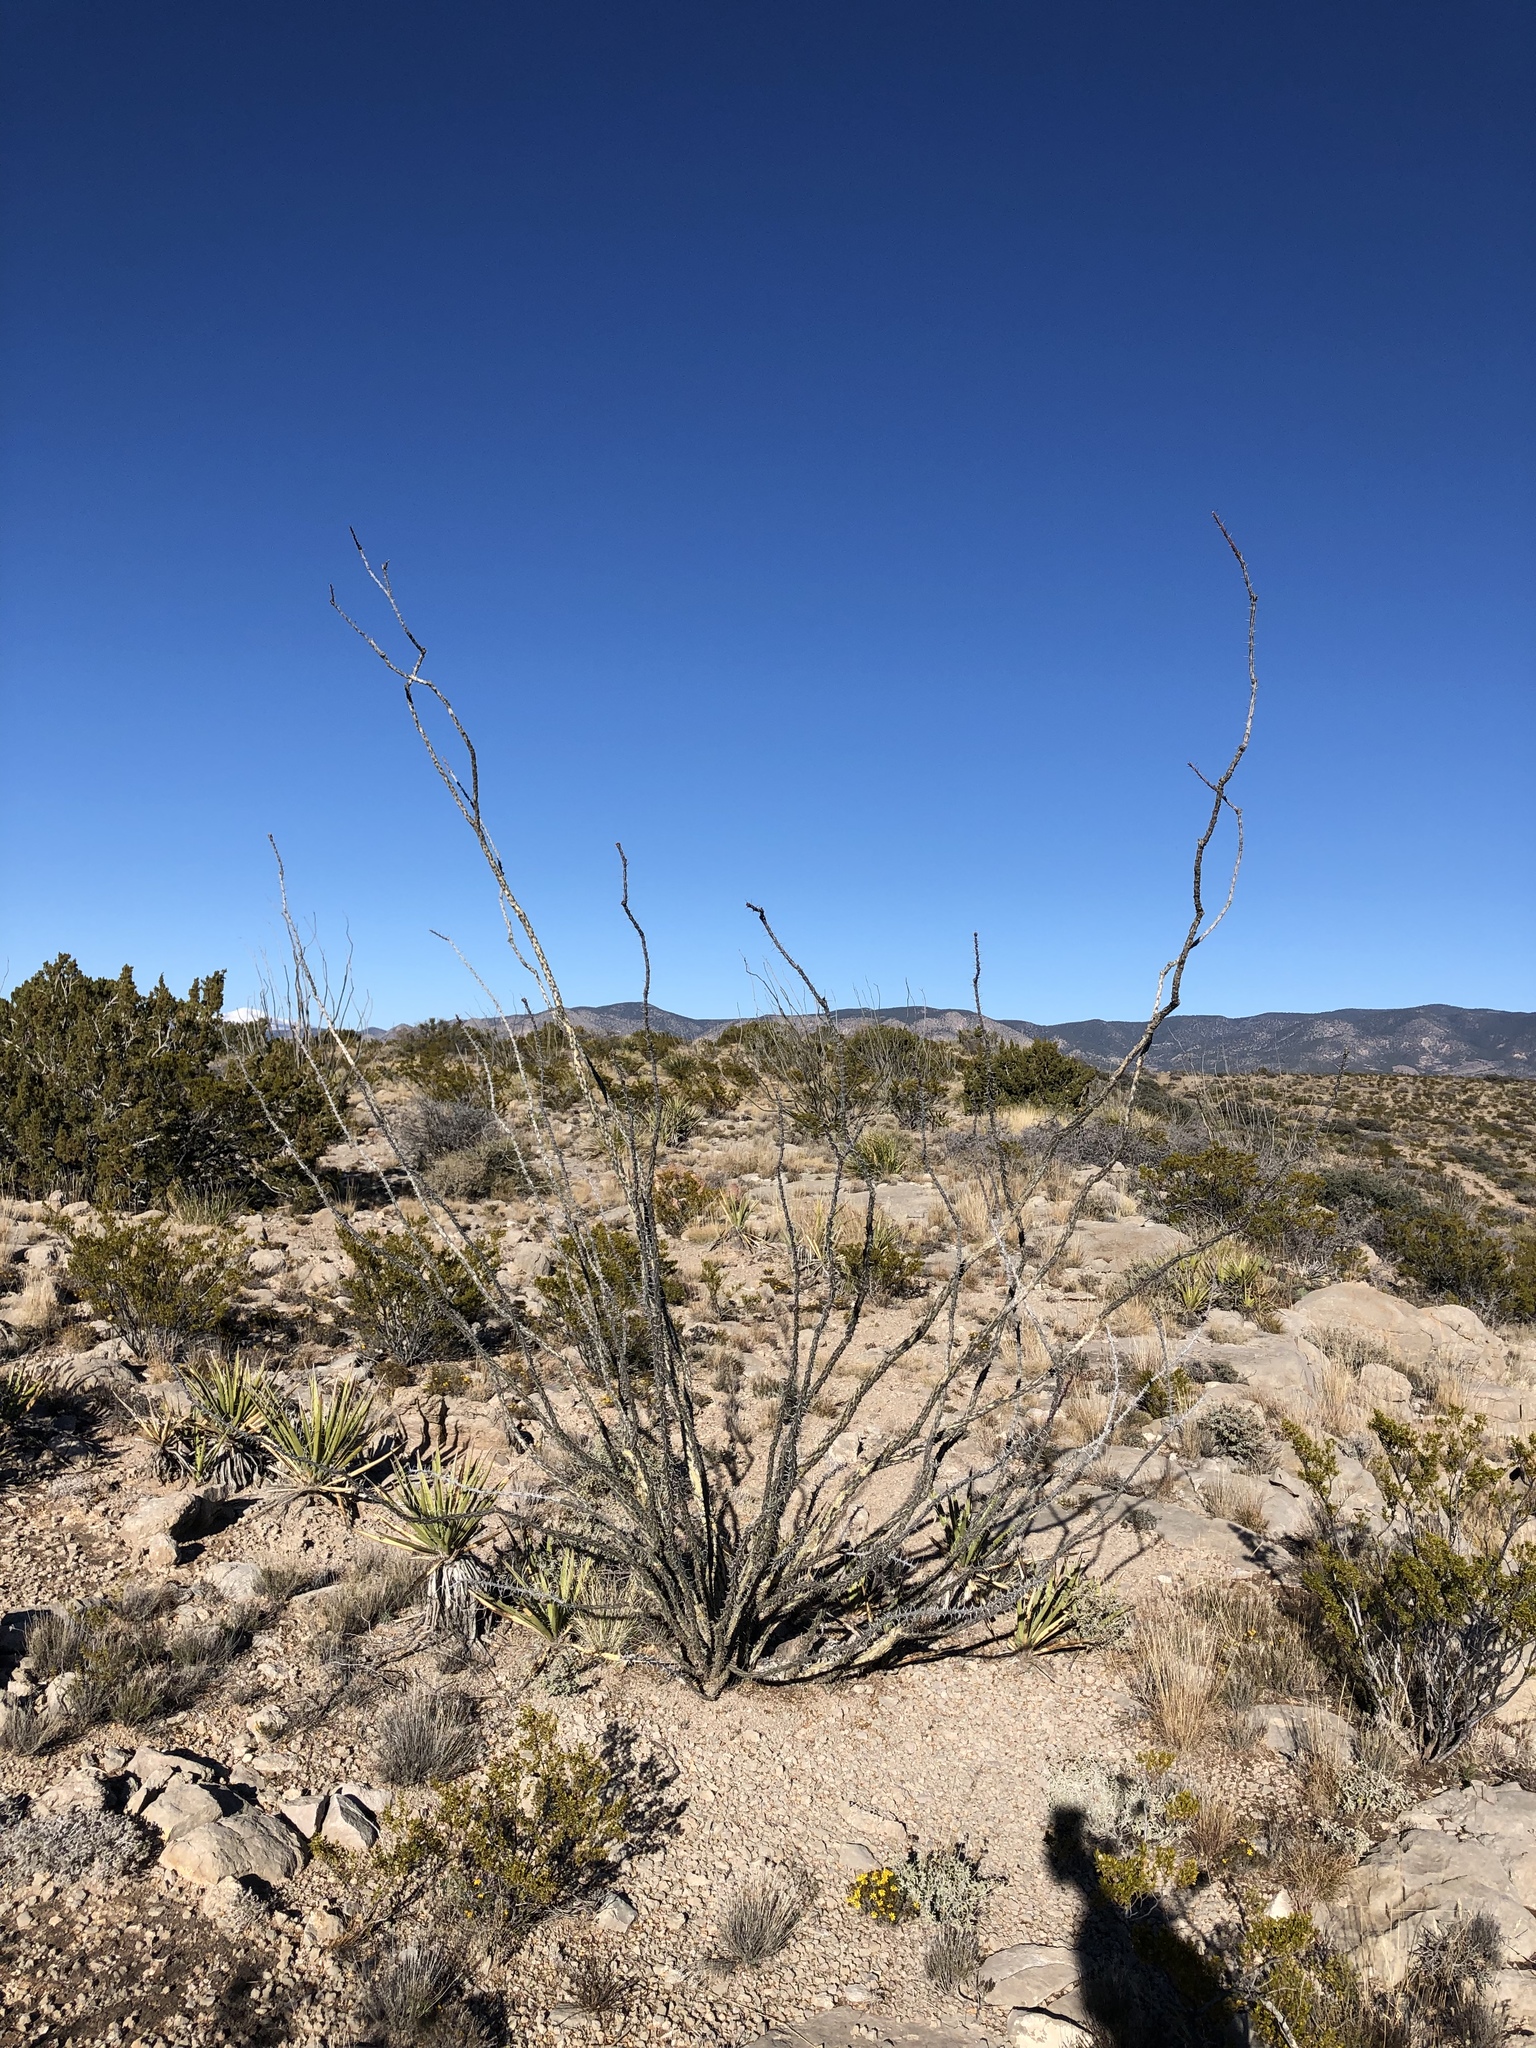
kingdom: Plantae
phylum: Tracheophyta
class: Magnoliopsida
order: Ericales
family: Fouquieriaceae
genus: Fouquieria
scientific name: Fouquieria splendens
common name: Vine-cactus
